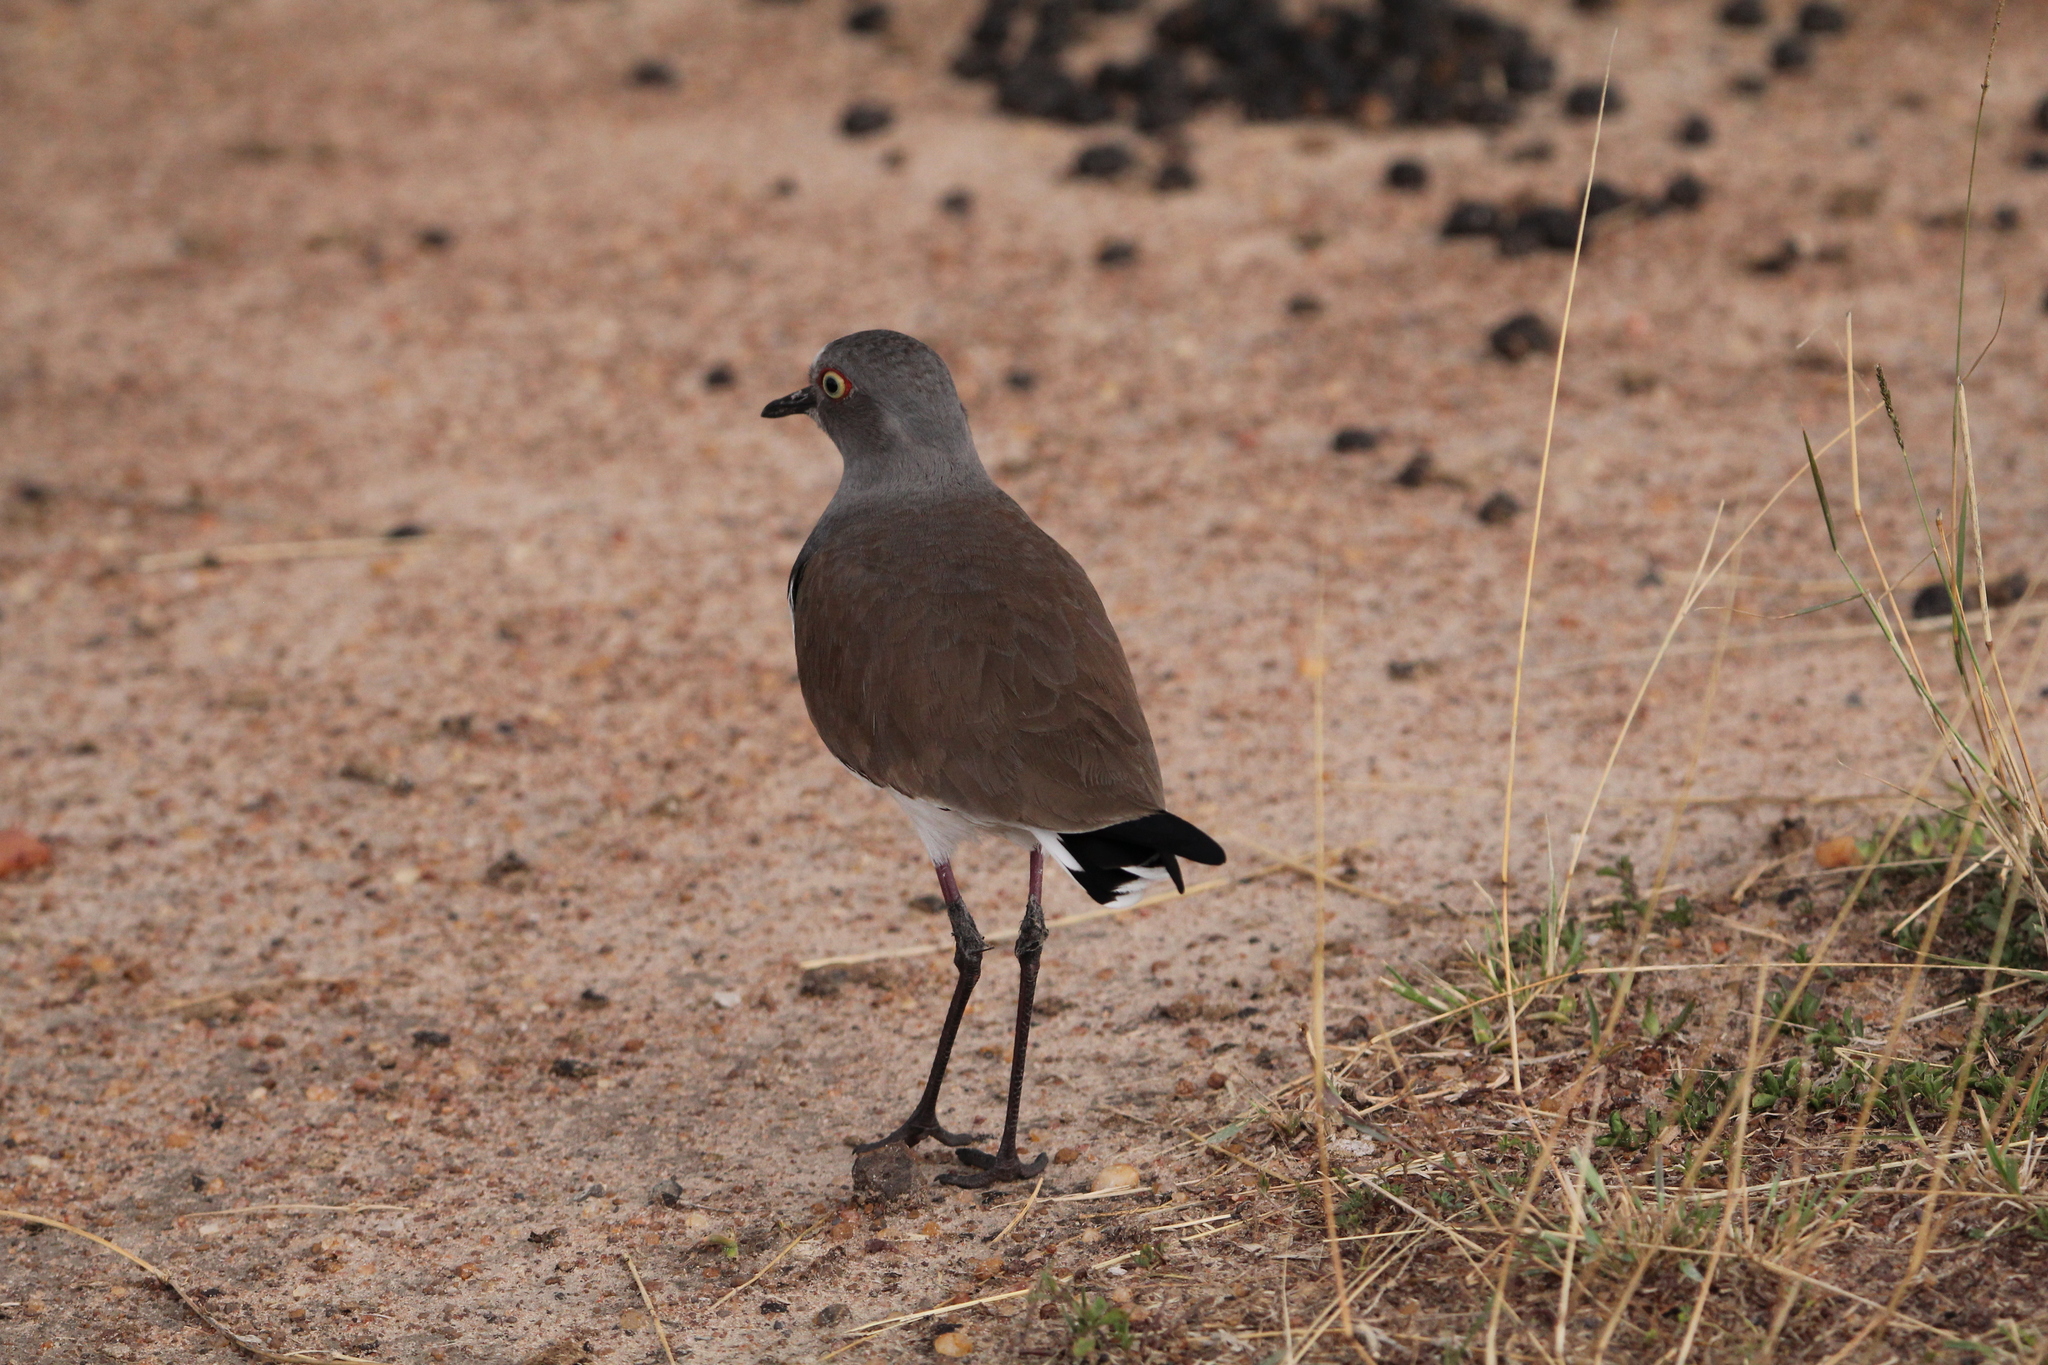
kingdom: Animalia
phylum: Chordata
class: Aves
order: Charadriiformes
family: Charadriidae
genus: Vanellus
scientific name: Vanellus melanopterus
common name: Black-winged lapwing
